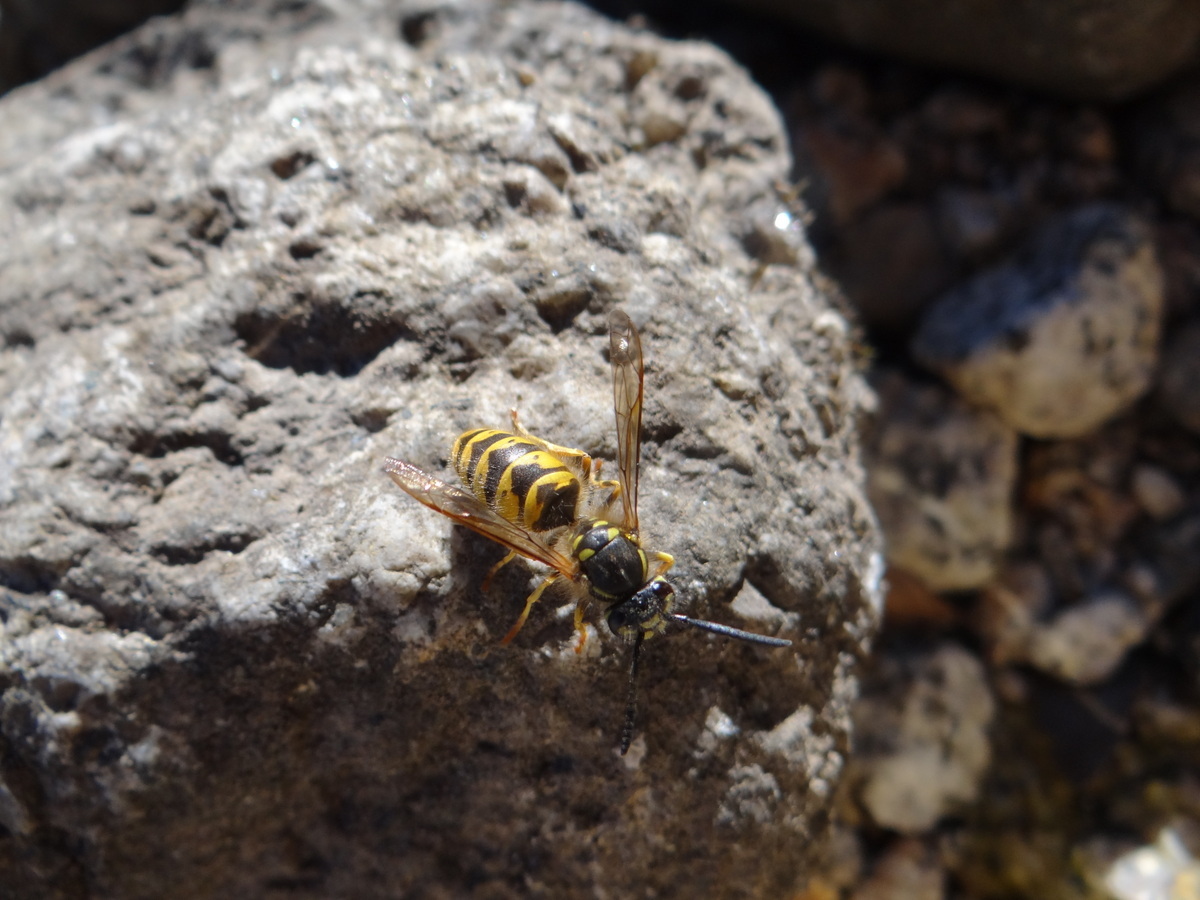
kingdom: Animalia
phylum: Arthropoda
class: Insecta
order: Hymenoptera
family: Vespidae
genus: Vespula
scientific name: Vespula vulgaris
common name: Common wasp
